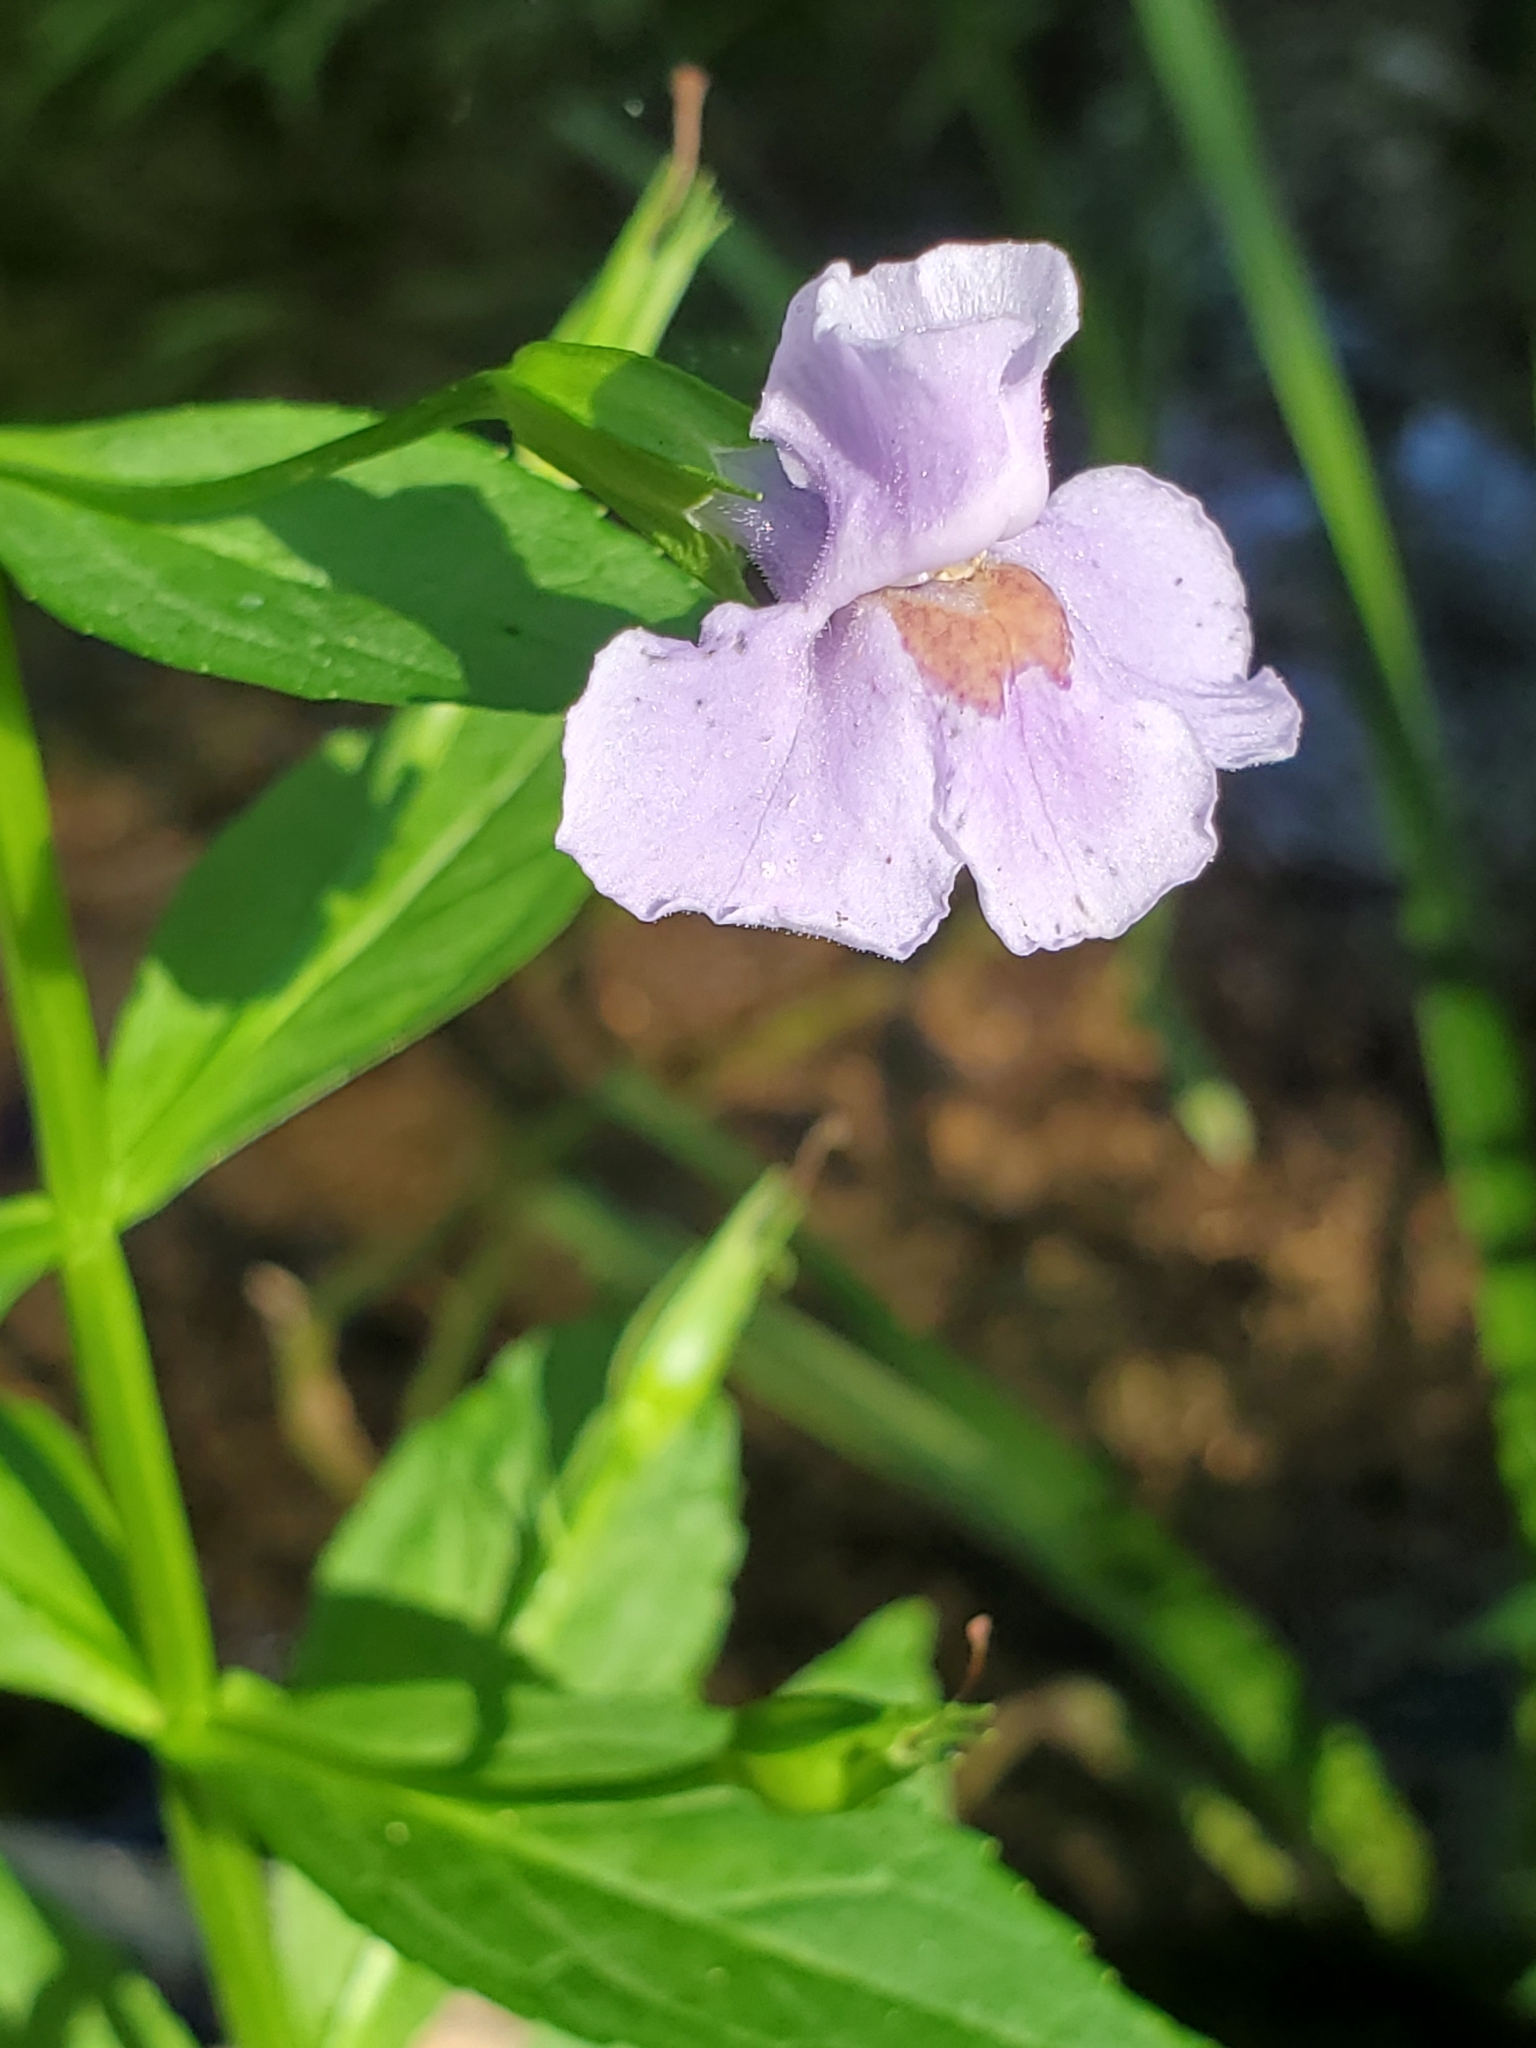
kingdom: Plantae
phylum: Tracheophyta
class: Magnoliopsida
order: Lamiales
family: Phrymaceae
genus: Mimulus
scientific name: Mimulus ringens
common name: Allegheny monkeyflower
